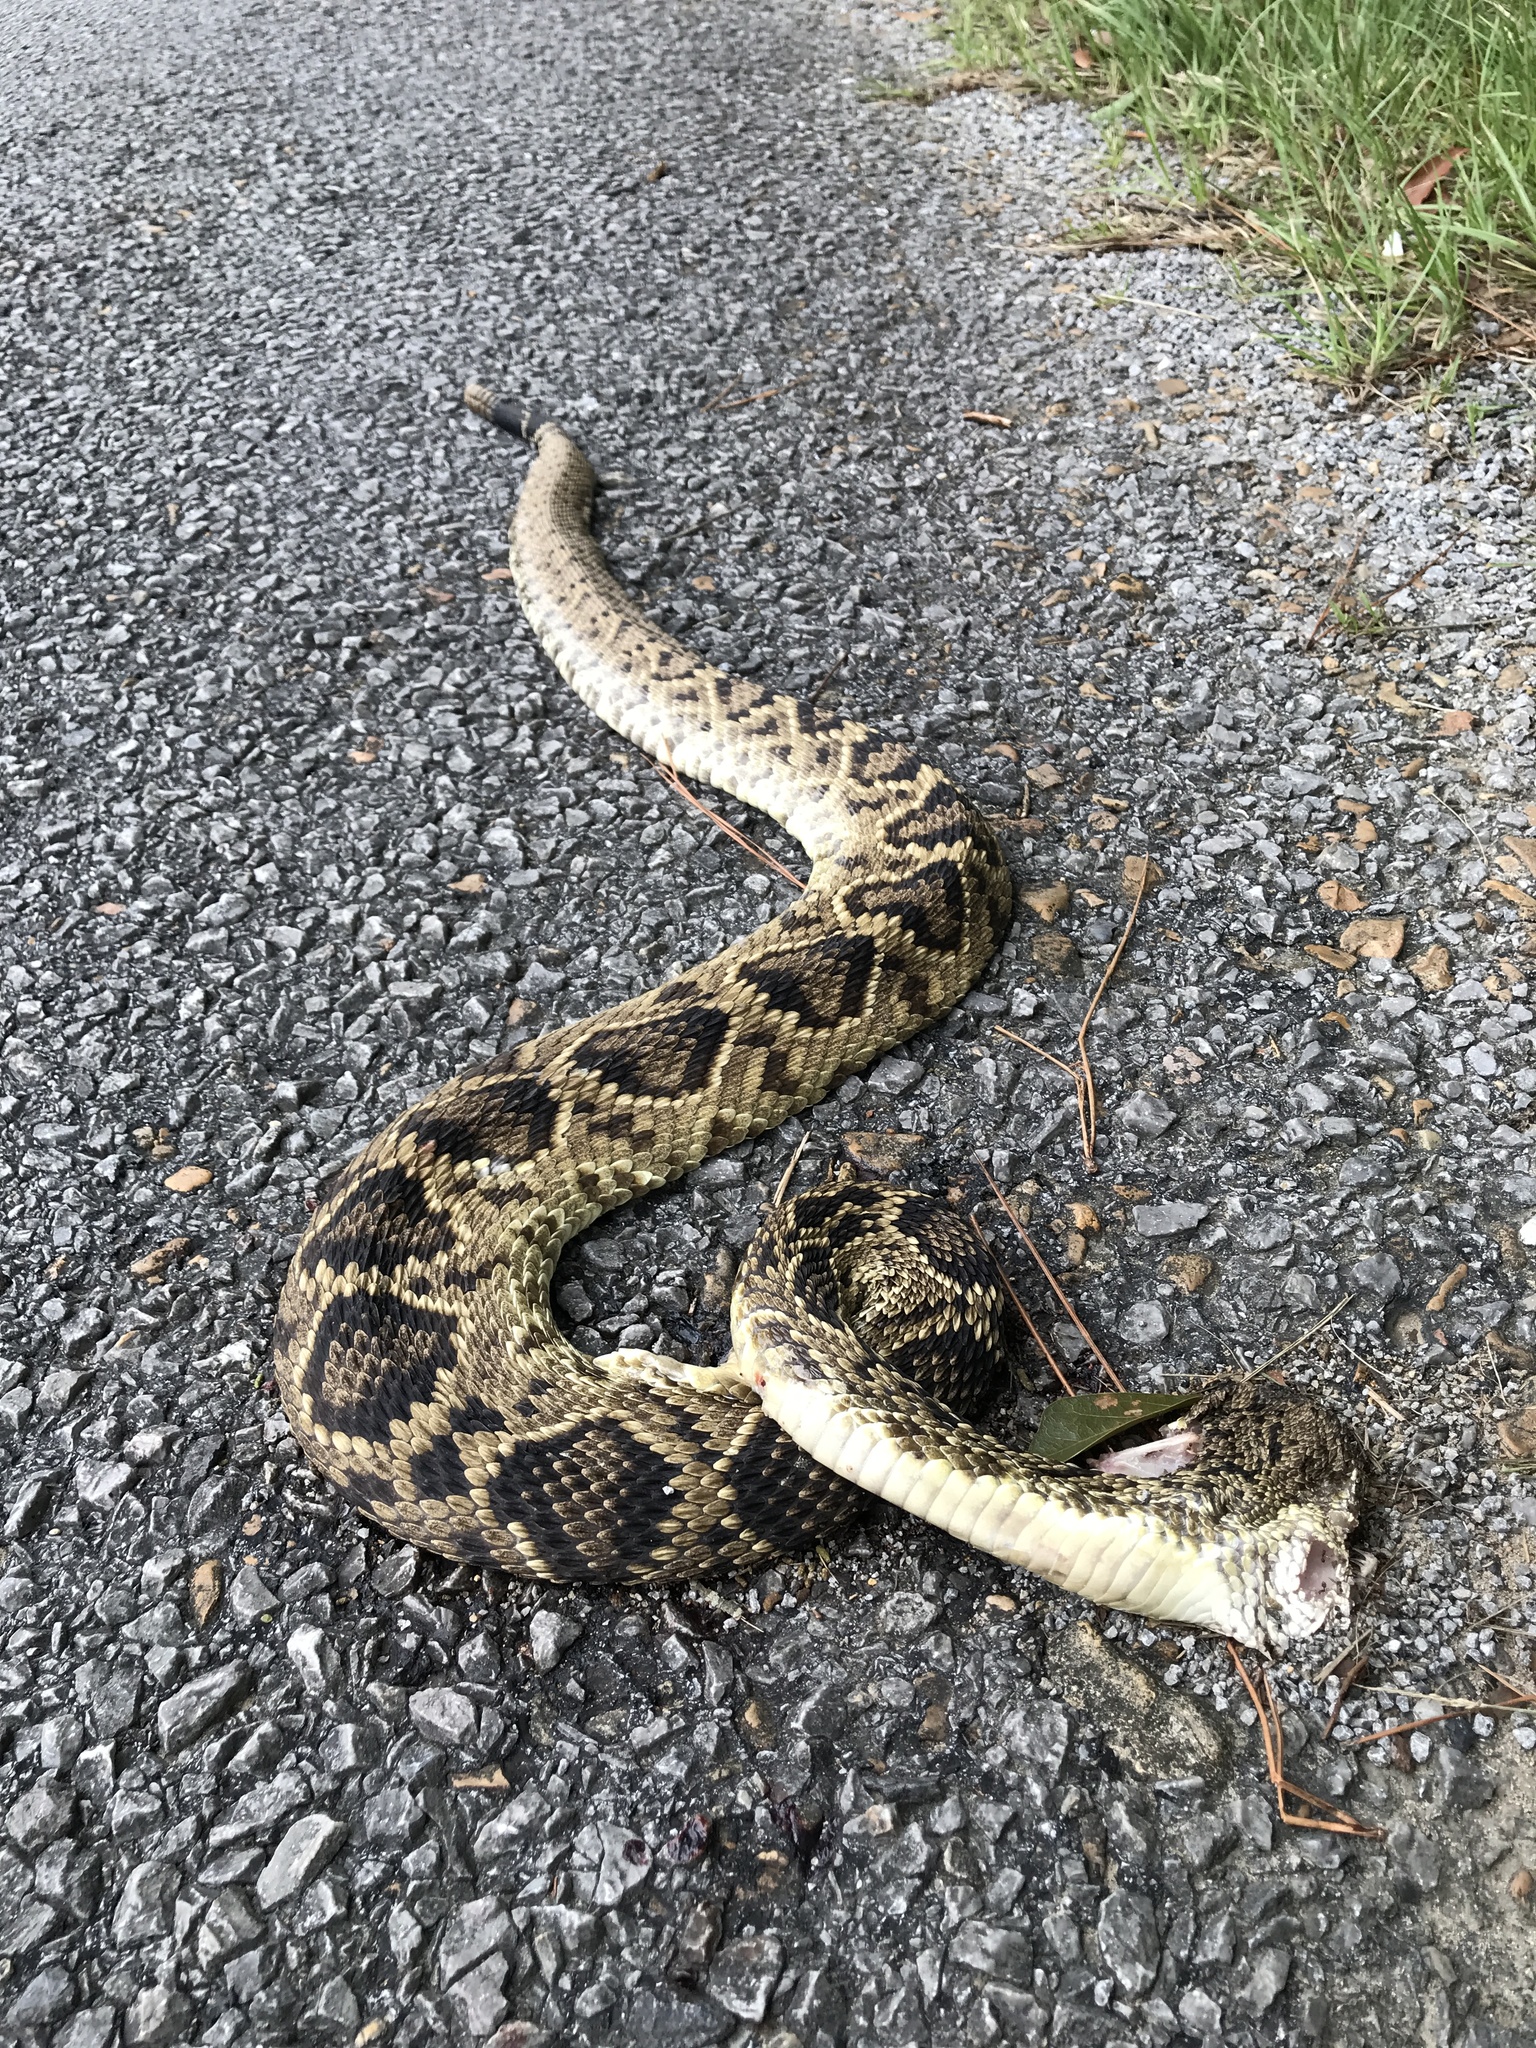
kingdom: Animalia
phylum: Chordata
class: Squamata
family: Viperidae
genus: Crotalus
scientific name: Crotalus adamanteus
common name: Eastern diamondback rattlesnake
